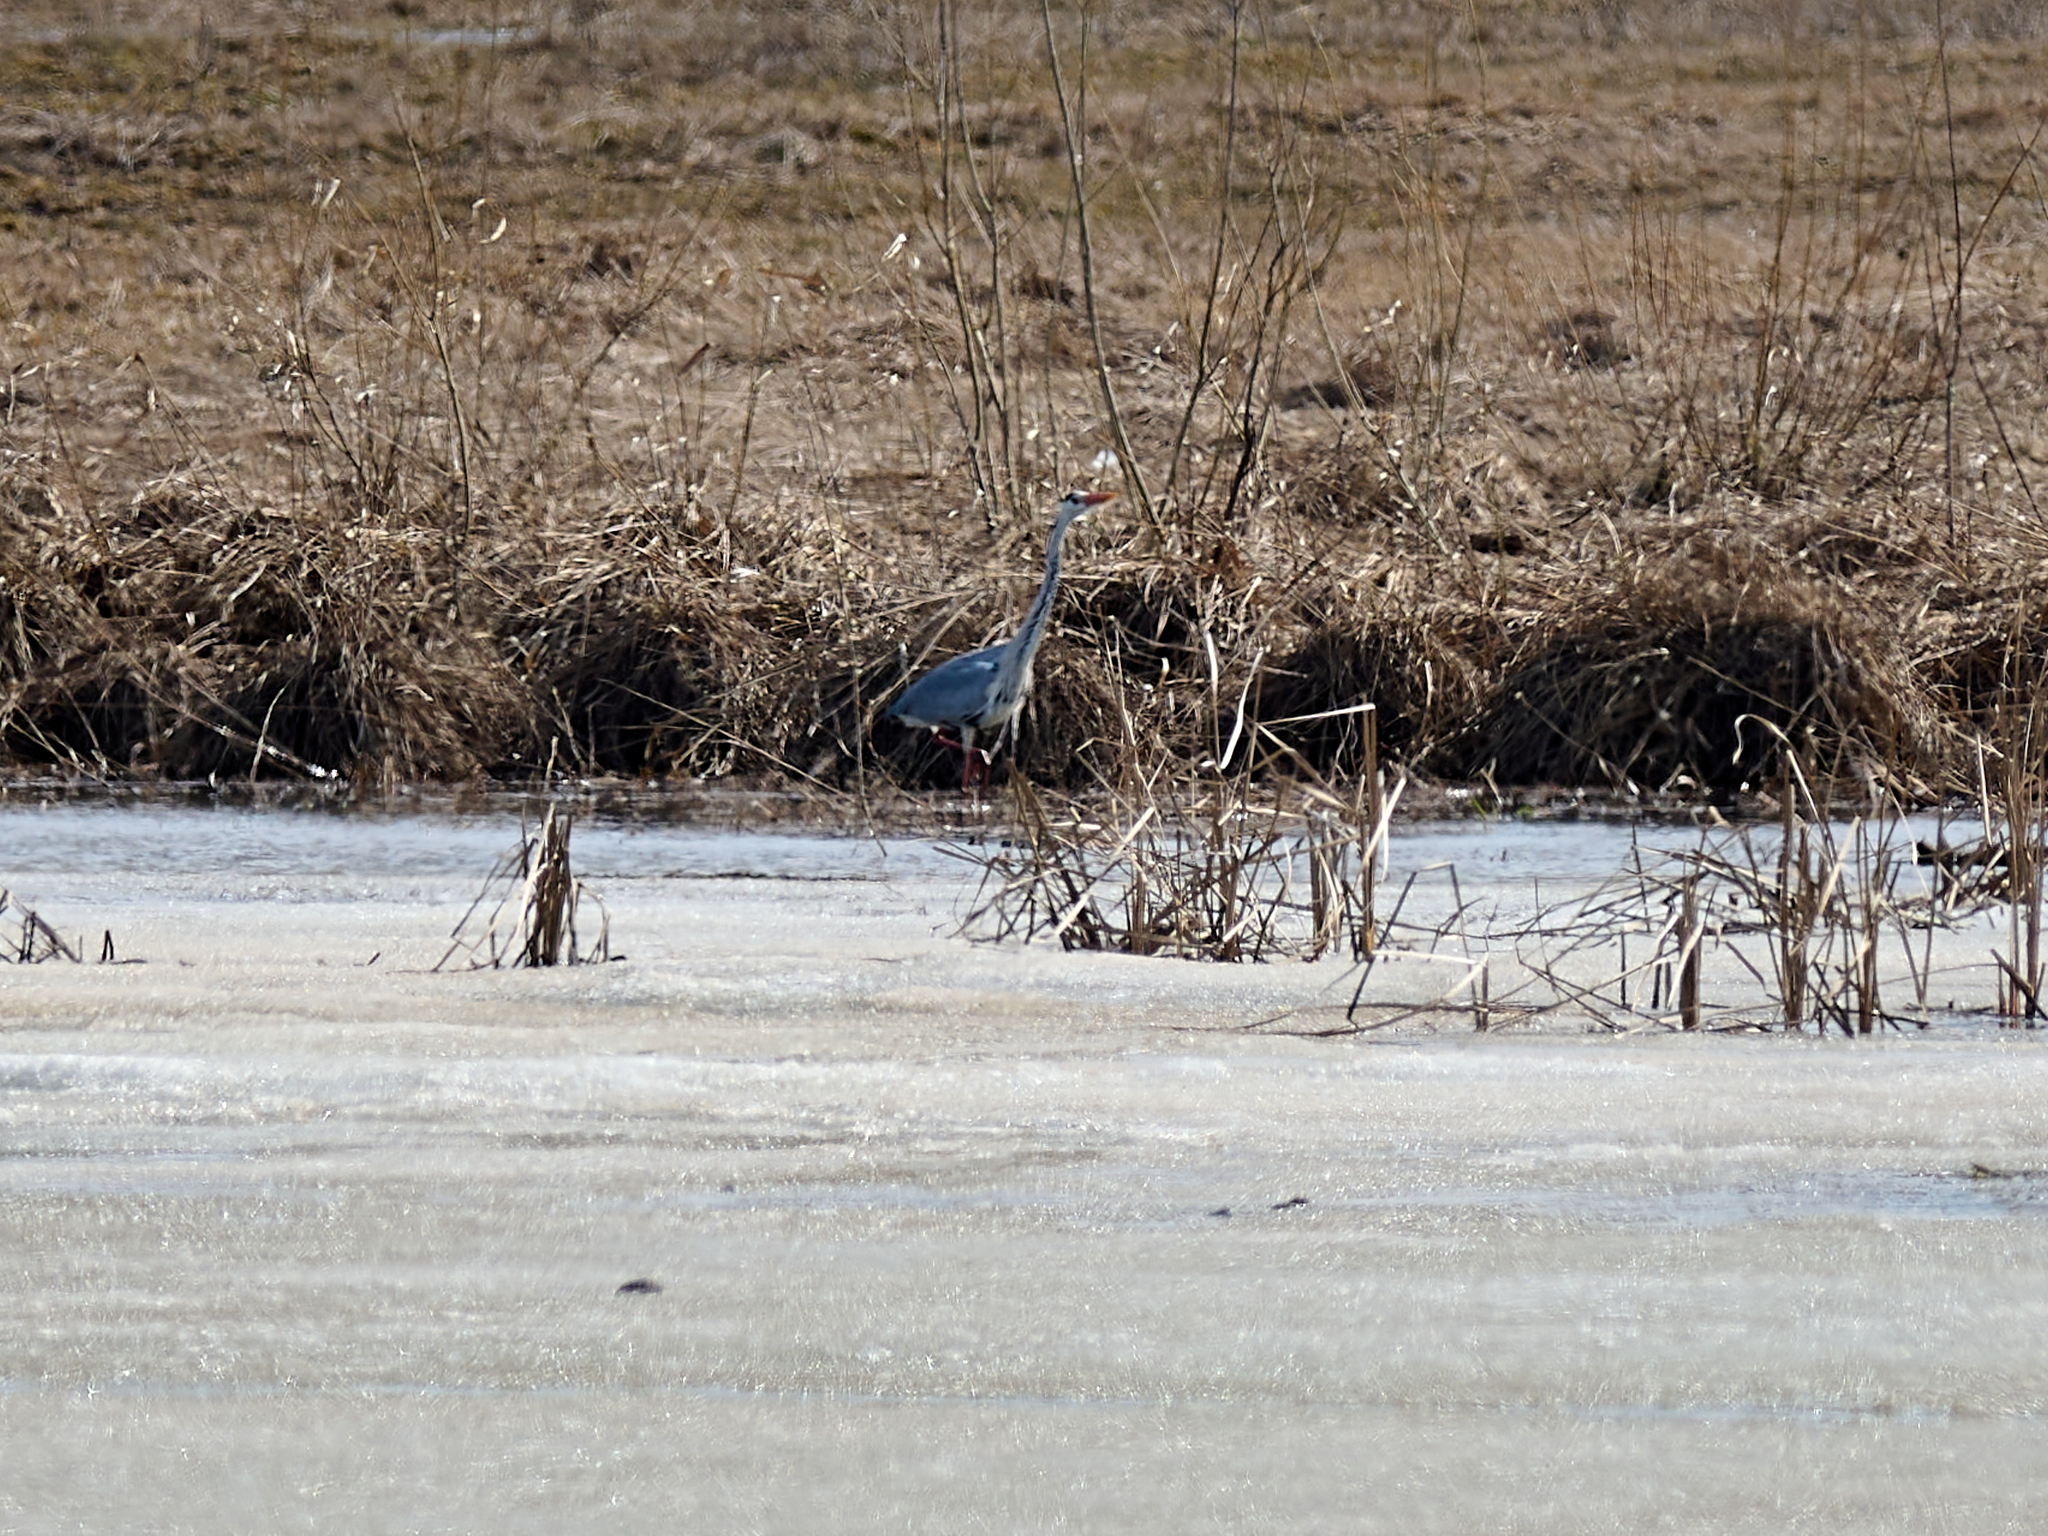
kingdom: Animalia
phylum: Chordata
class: Aves
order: Pelecaniformes
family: Ardeidae
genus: Ardea
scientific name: Ardea cinerea
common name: Grey heron
